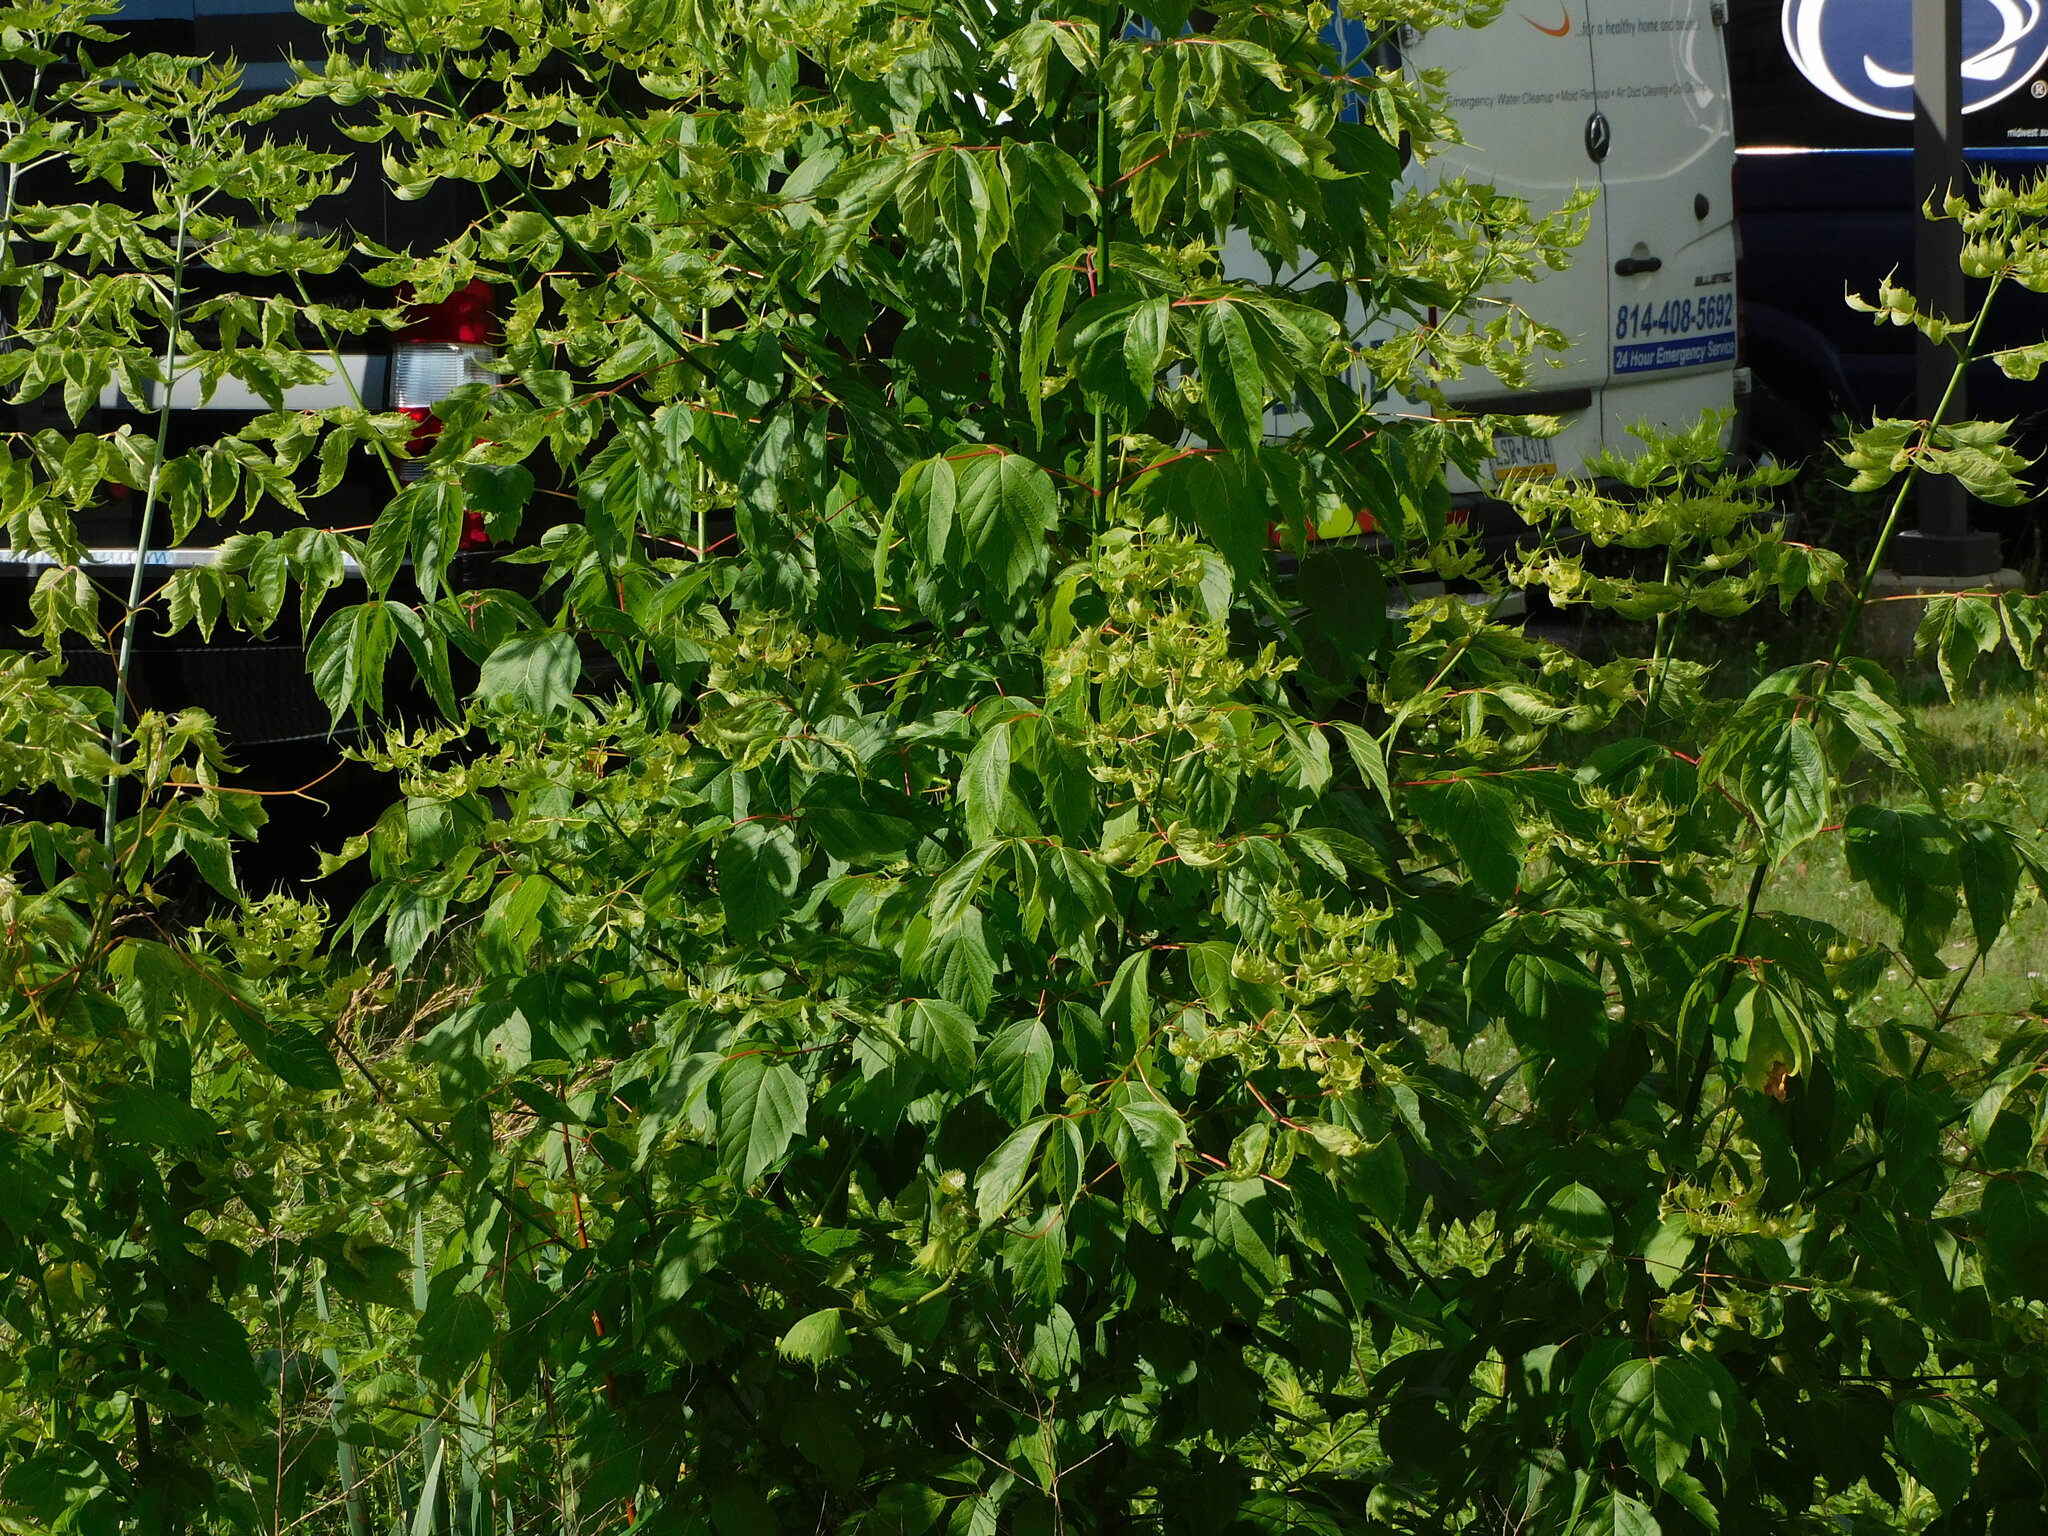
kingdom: Plantae
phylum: Tracheophyta
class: Magnoliopsida
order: Sapindales
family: Sapindaceae
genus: Acer
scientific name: Acer negundo
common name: Ashleaf maple
